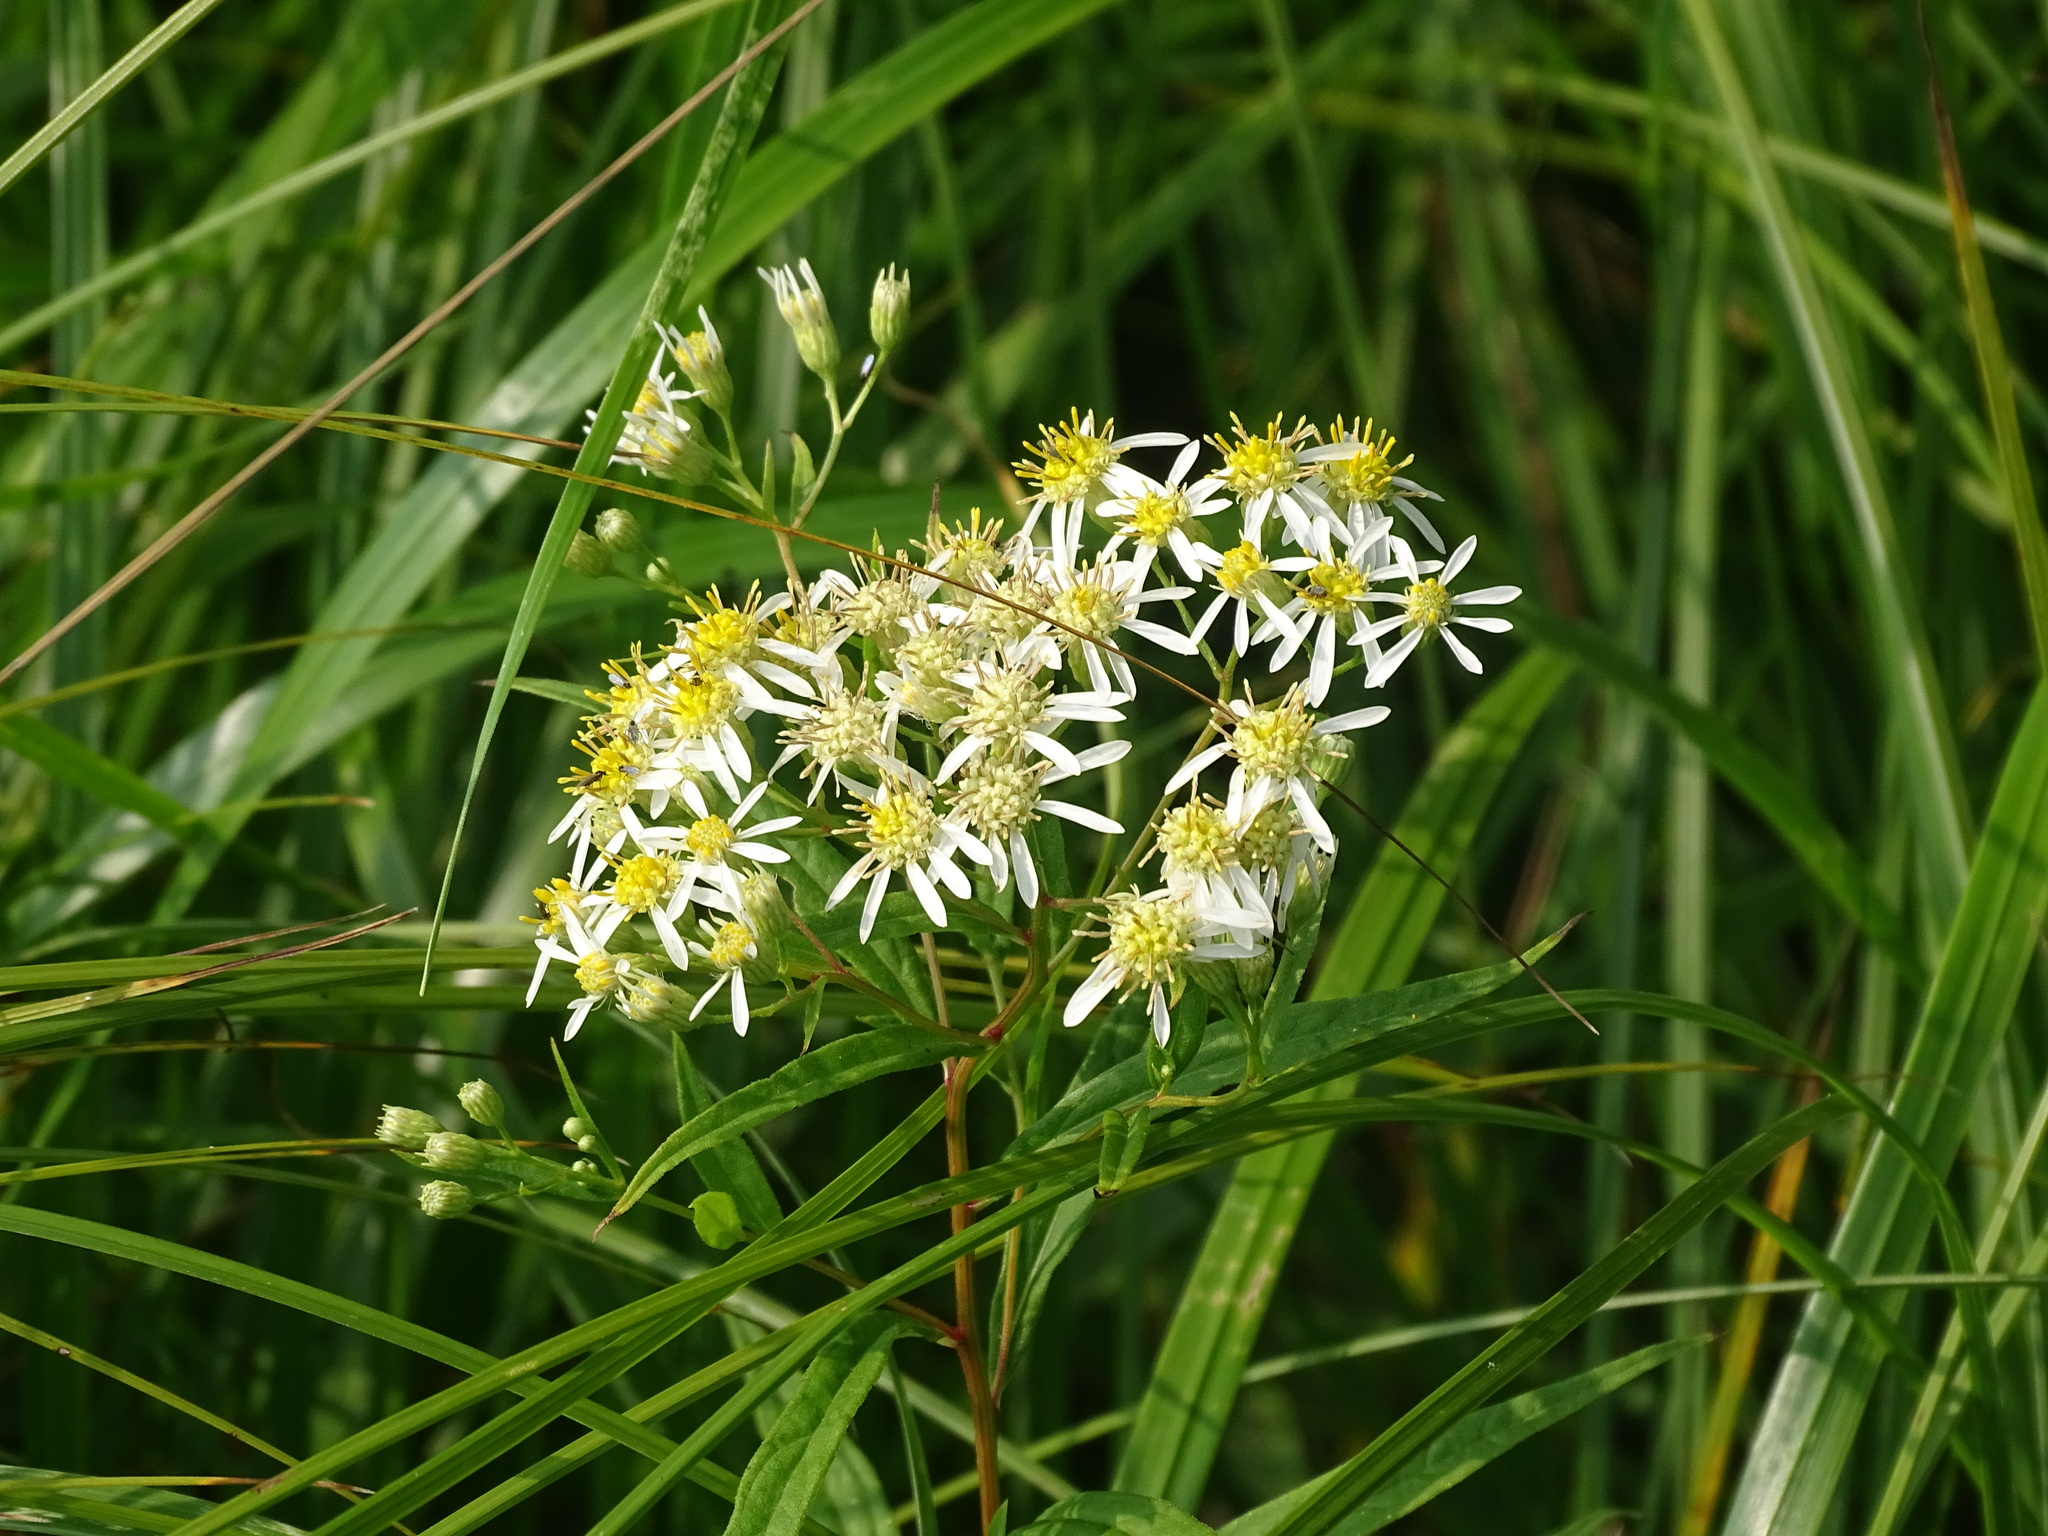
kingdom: Plantae
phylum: Tracheophyta
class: Magnoliopsida
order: Asterales
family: Asteraceae
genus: Doellingeria
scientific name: Doellingeria umbellata
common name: Flat-top white aster
